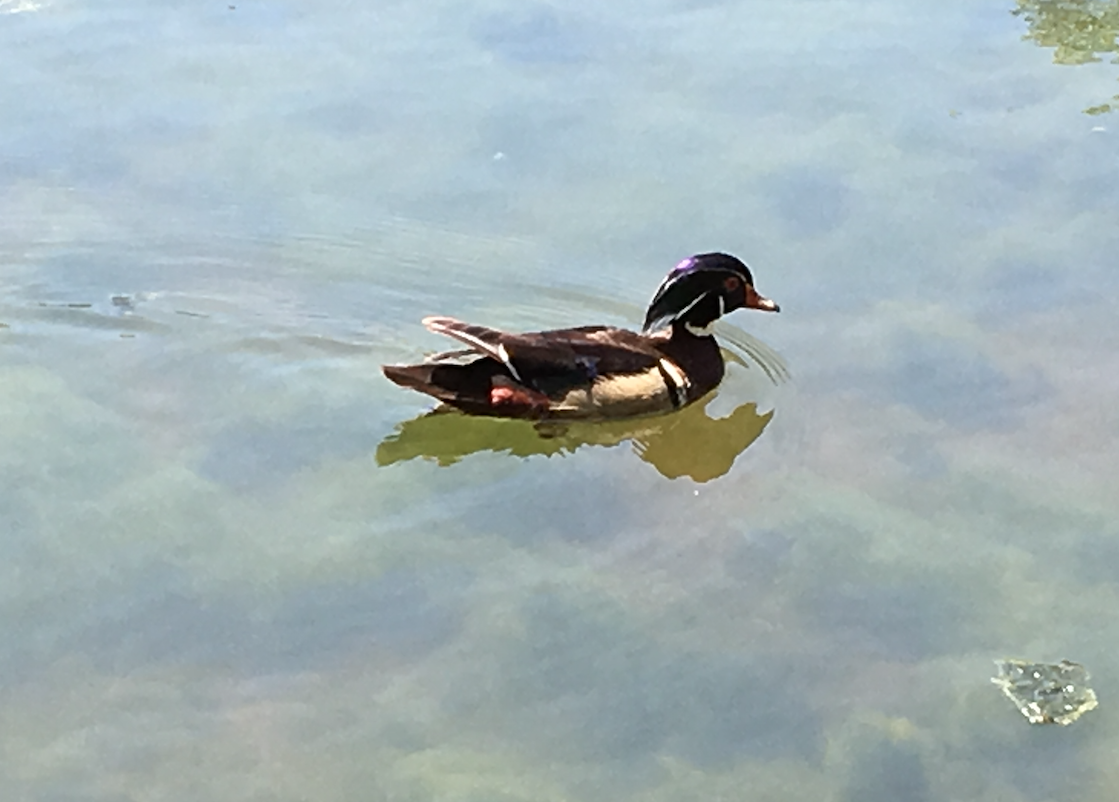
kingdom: Animalia
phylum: Chordata
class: Aves
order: Anseriformes
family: Anatidae
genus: Aix
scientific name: Aix sponsa
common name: Wood duck
